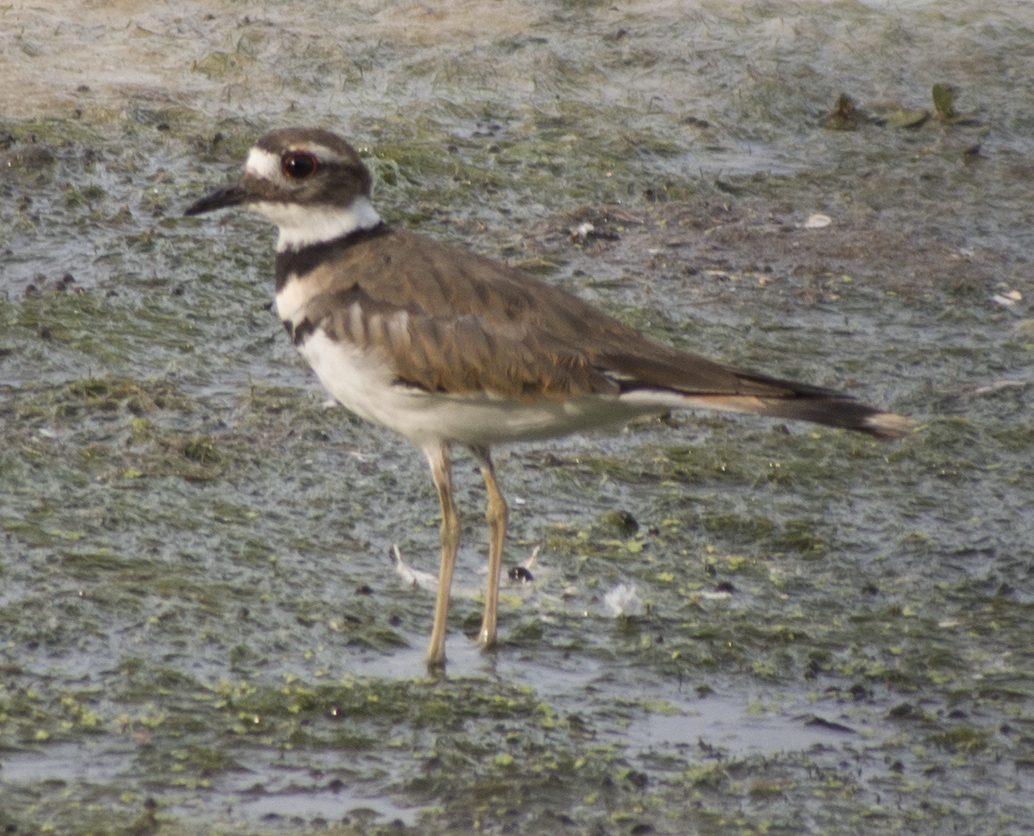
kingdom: Animalia
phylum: Chordata
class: Aves
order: Charadriiformes
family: Charadriidae
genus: Charadrius
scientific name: Charadrius vociferus
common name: Killdeer
